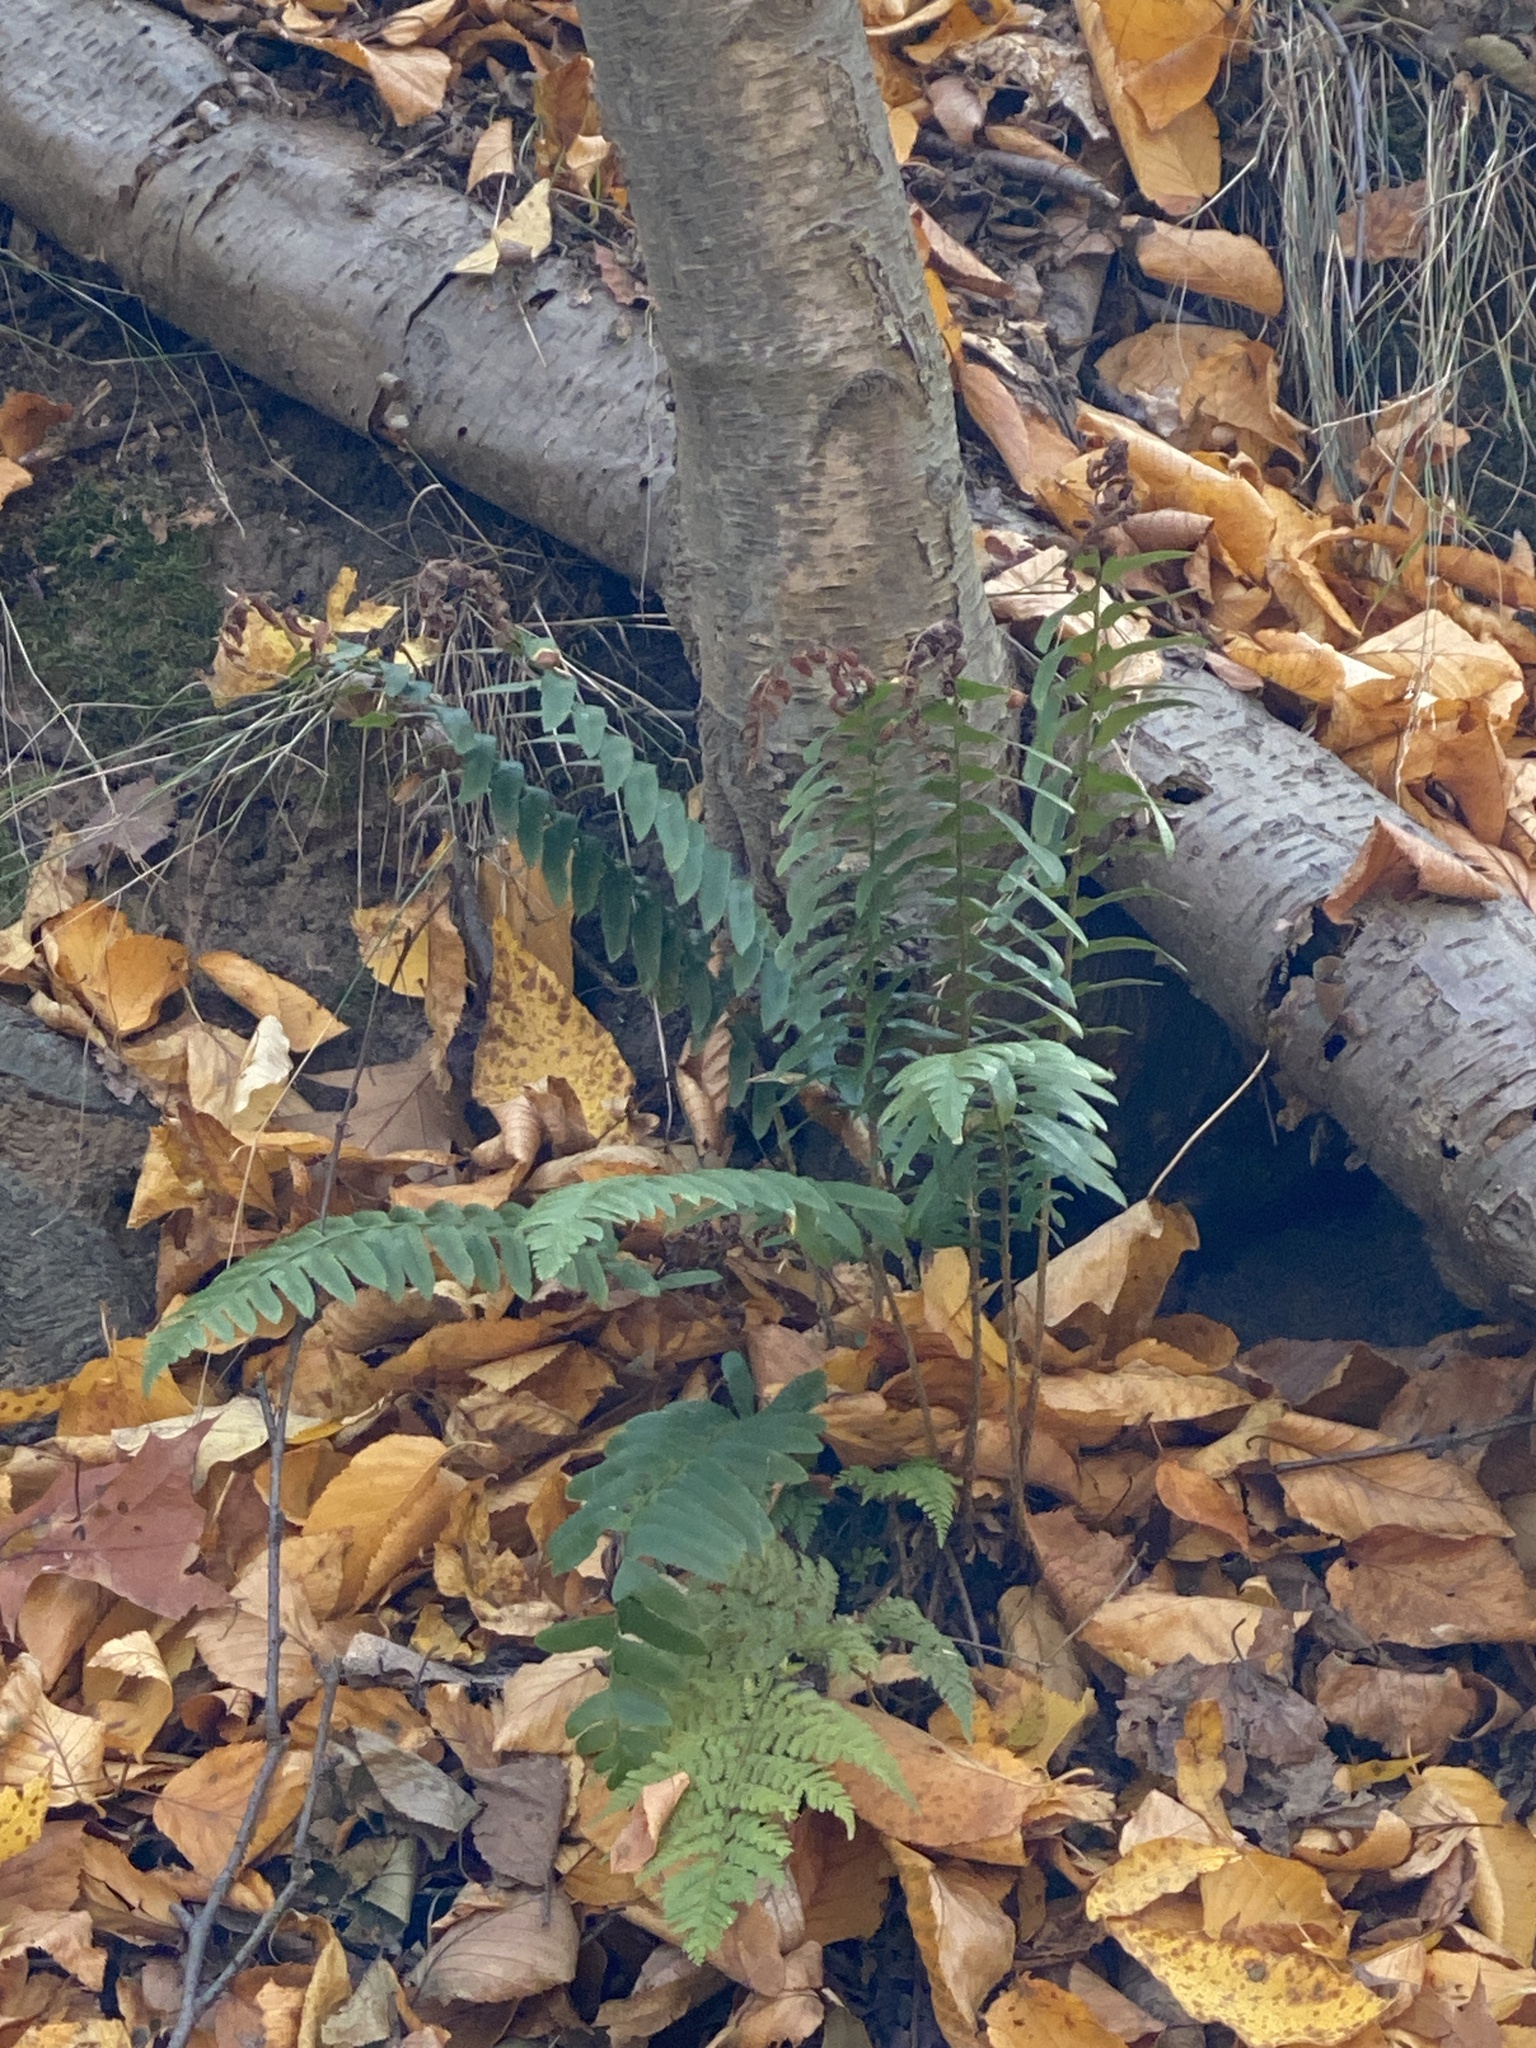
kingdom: Plantae
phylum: Tracheophyta
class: Polypodiopsida
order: Polypodiales
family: Dryopteridaceae
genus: Polystichum
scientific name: Polystichum acrostichoides
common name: Christmas fern
